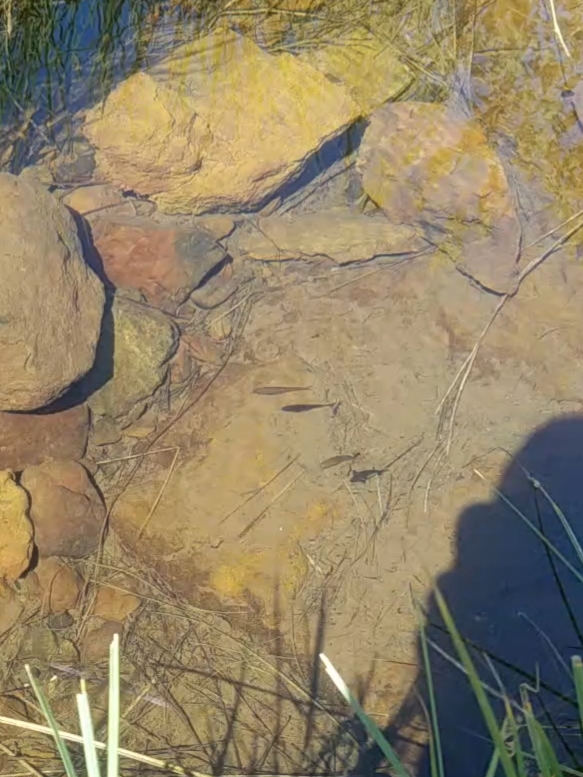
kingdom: Animalia
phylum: Chordata
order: Cypriniformes
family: Cyprinidae
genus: Hesperoleucus
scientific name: Hesperoleucus symmetricus
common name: California roach
